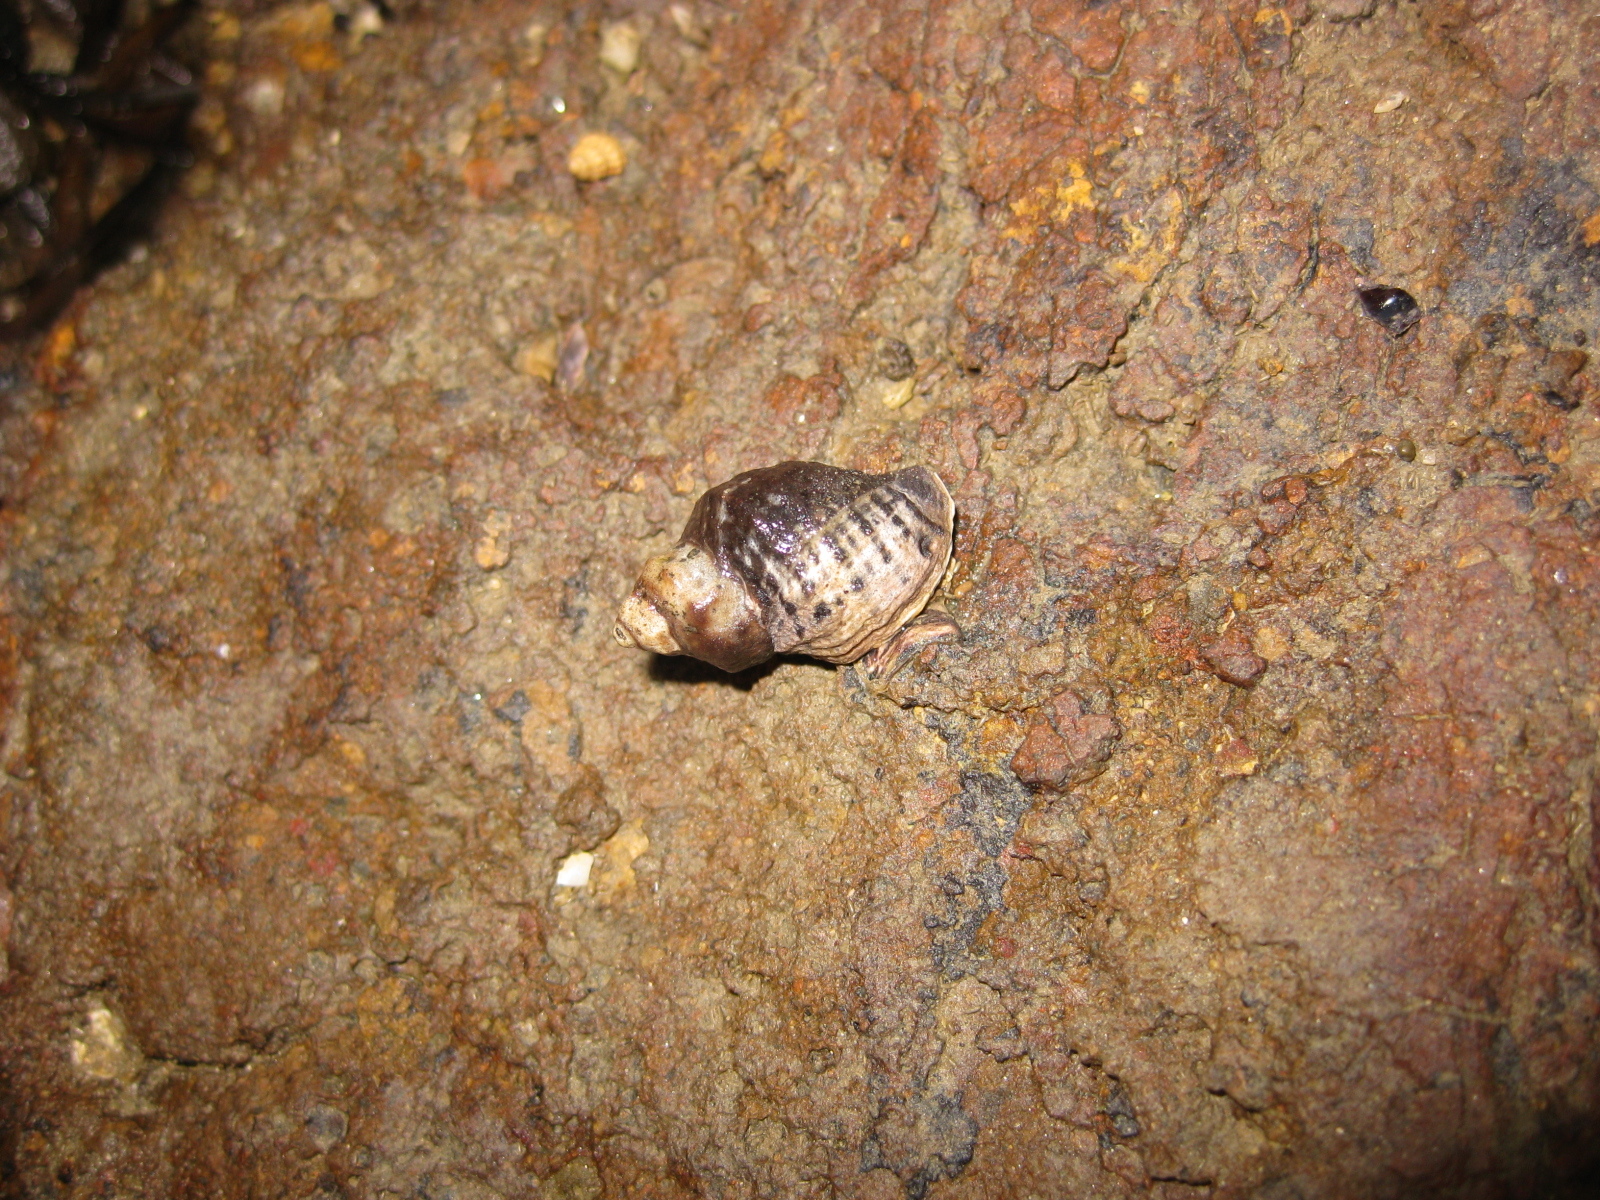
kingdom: Animalia
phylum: Mollusca
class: Gastropoda
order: Neogastropoda
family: Muricidae
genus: Haustrum
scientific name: Haustrum albomarginatum
